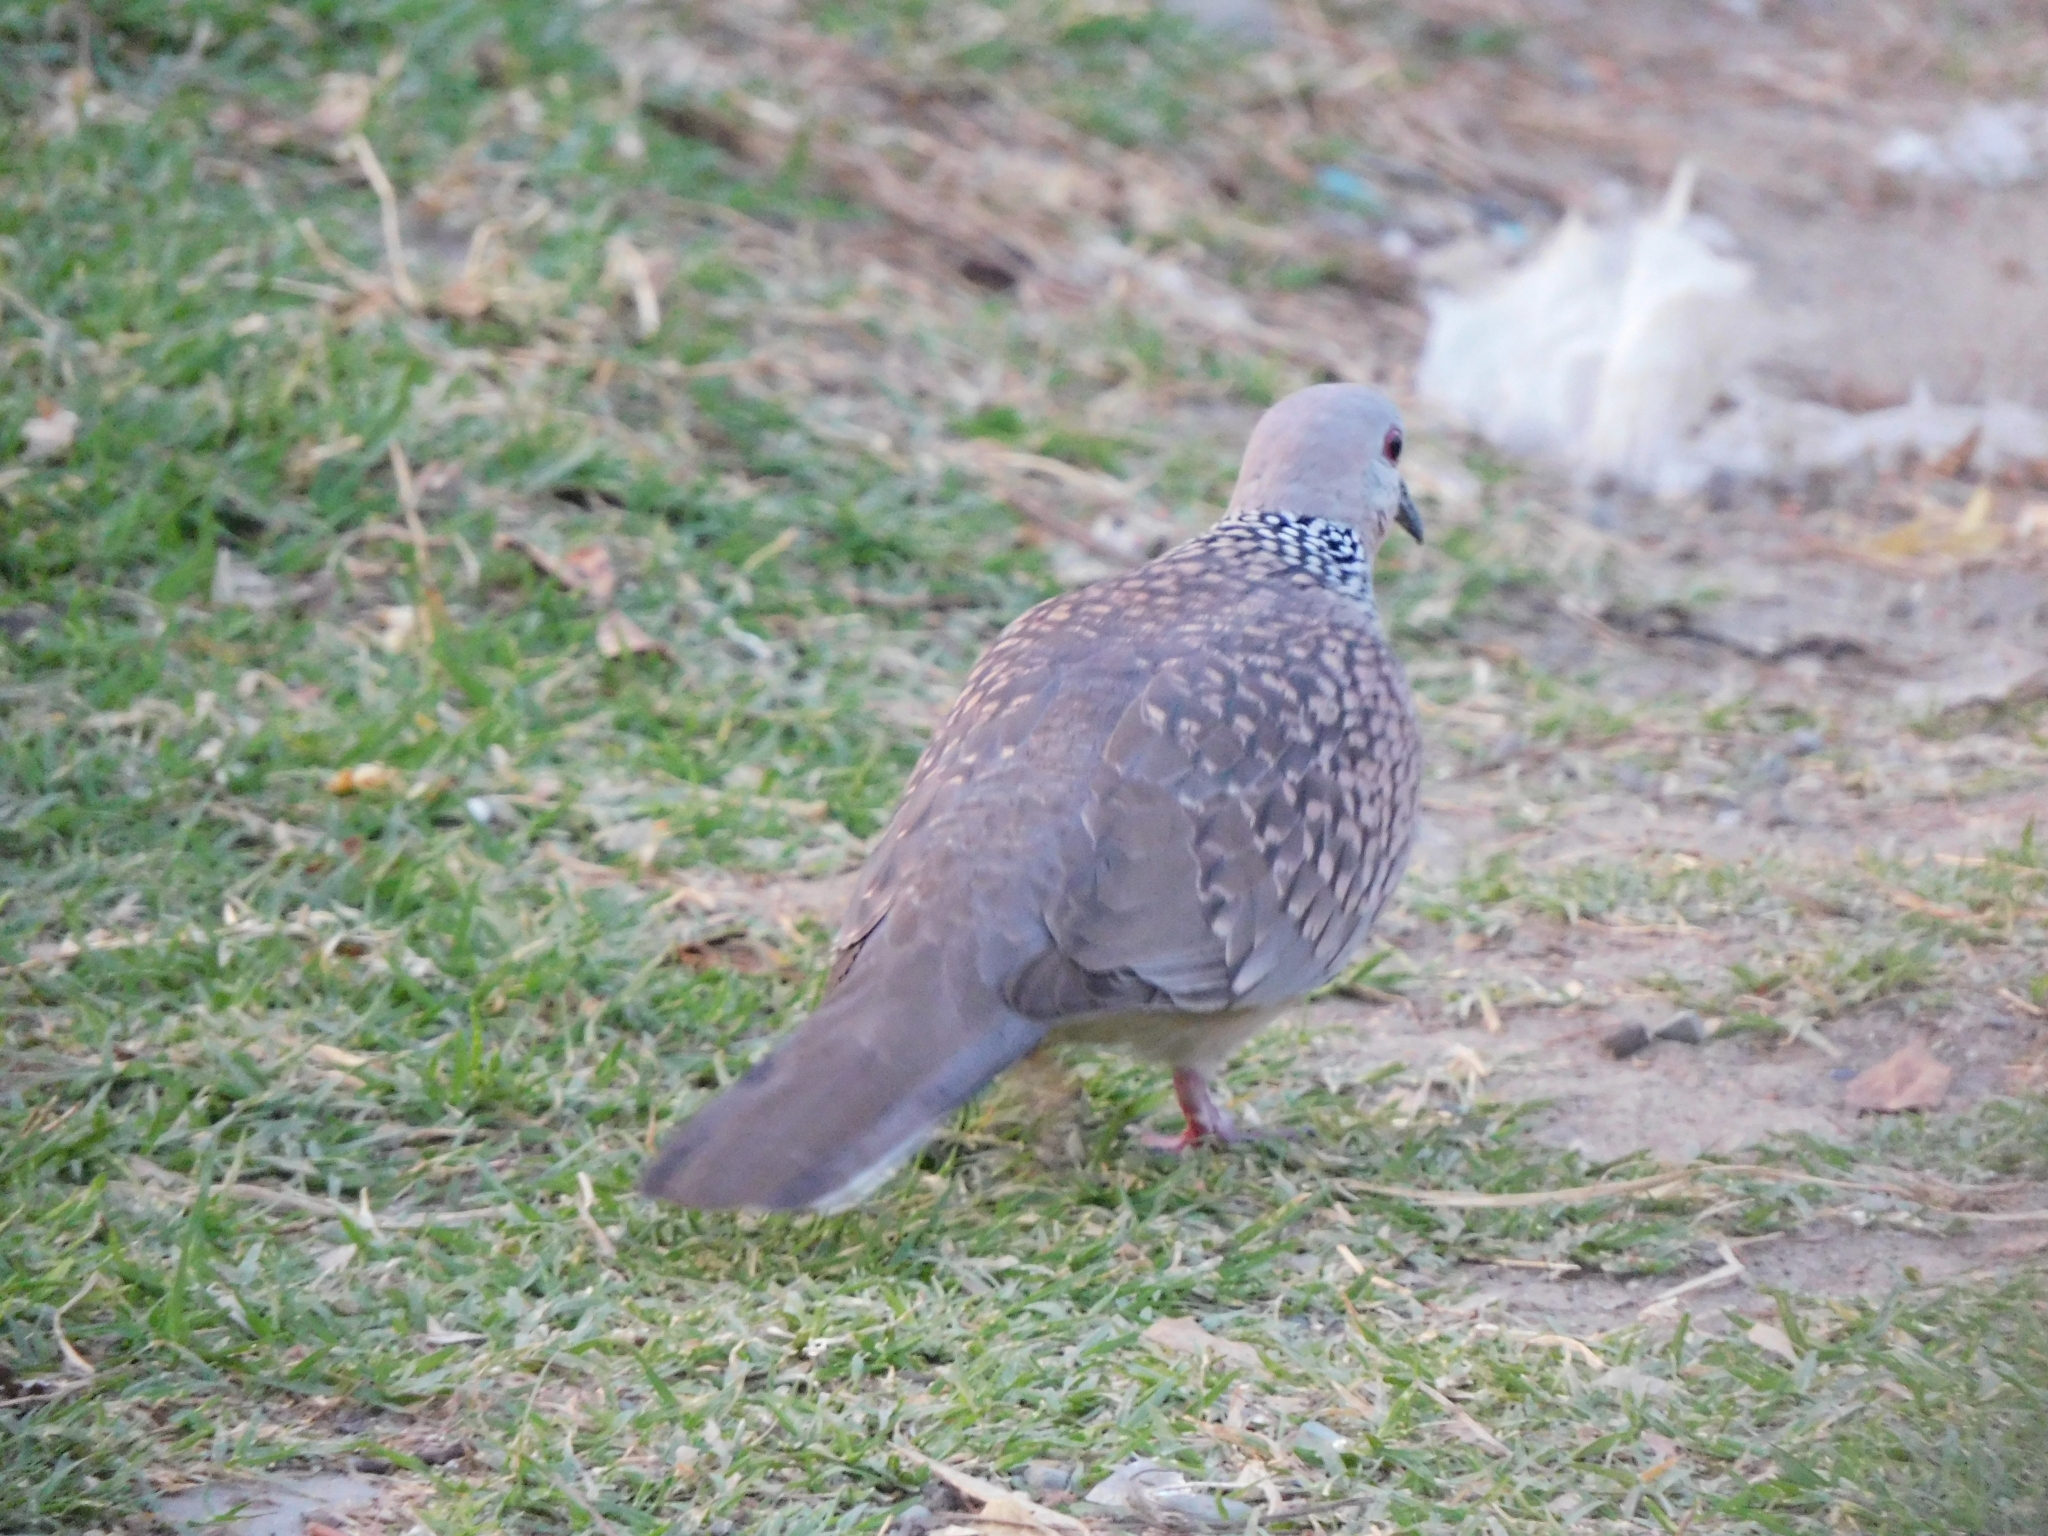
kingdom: Animalia
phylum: Chordata
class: Aves
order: Columbiformes
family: Columbidae
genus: Spilopelia
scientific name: Spilopelia chinensis
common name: Spotted dove
